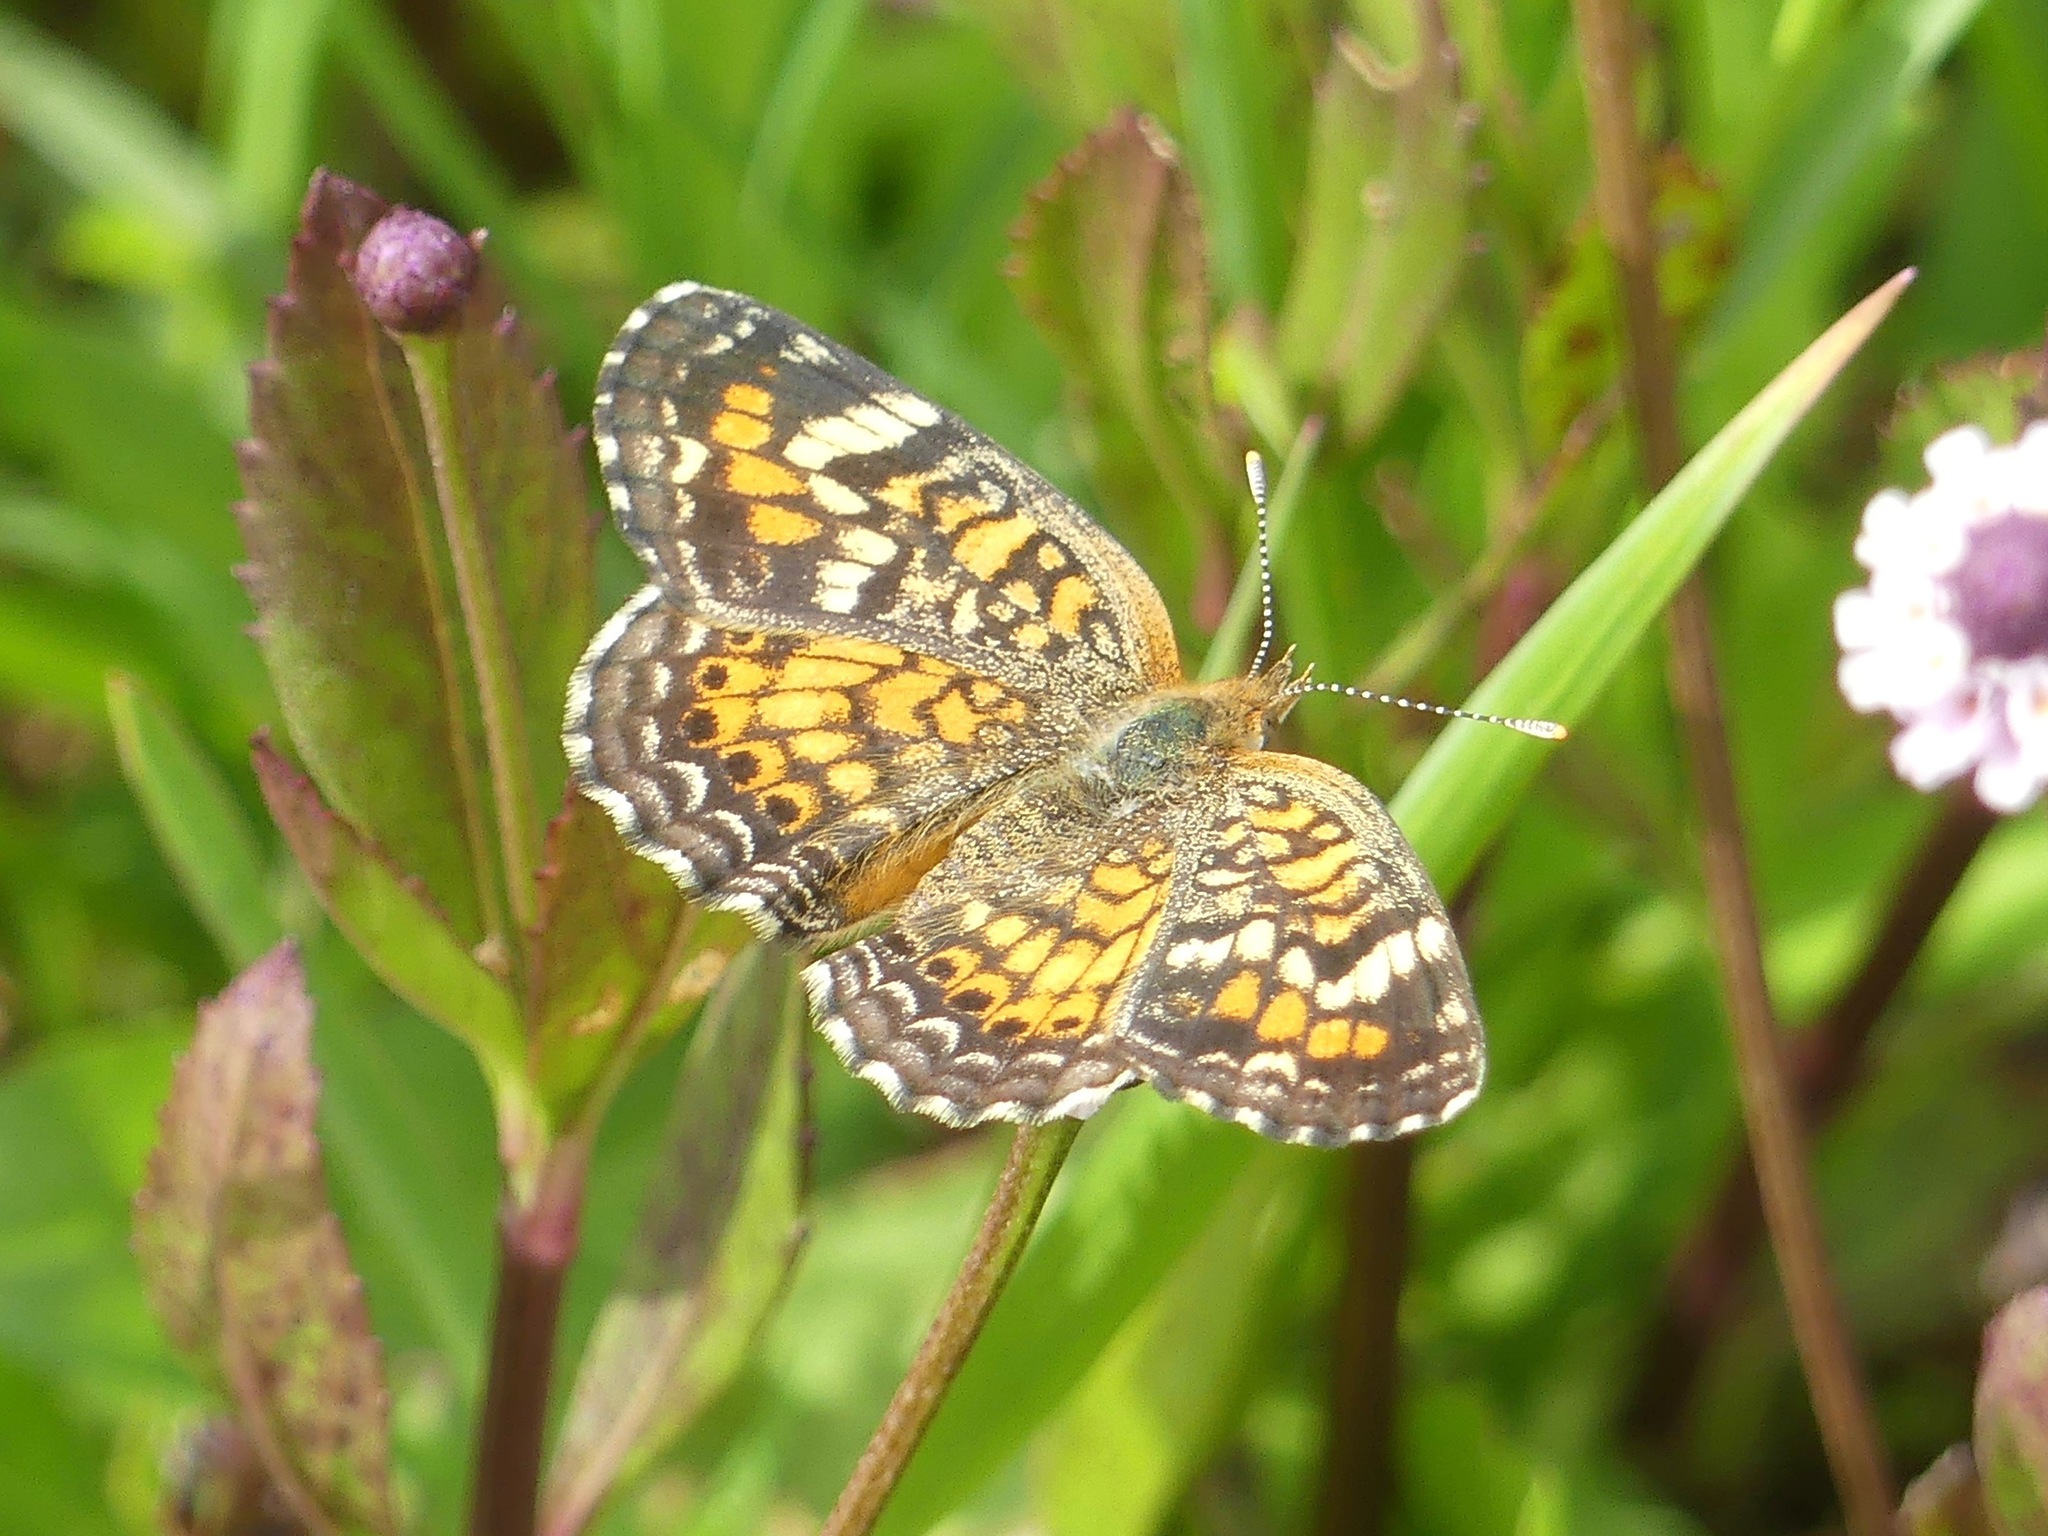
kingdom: Animalia
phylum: Arthropoda
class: Insecta
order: Lepidoptera
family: Nymphalidae
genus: Phyciodes
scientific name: Phyciodes phaon
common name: Phaon crescent
